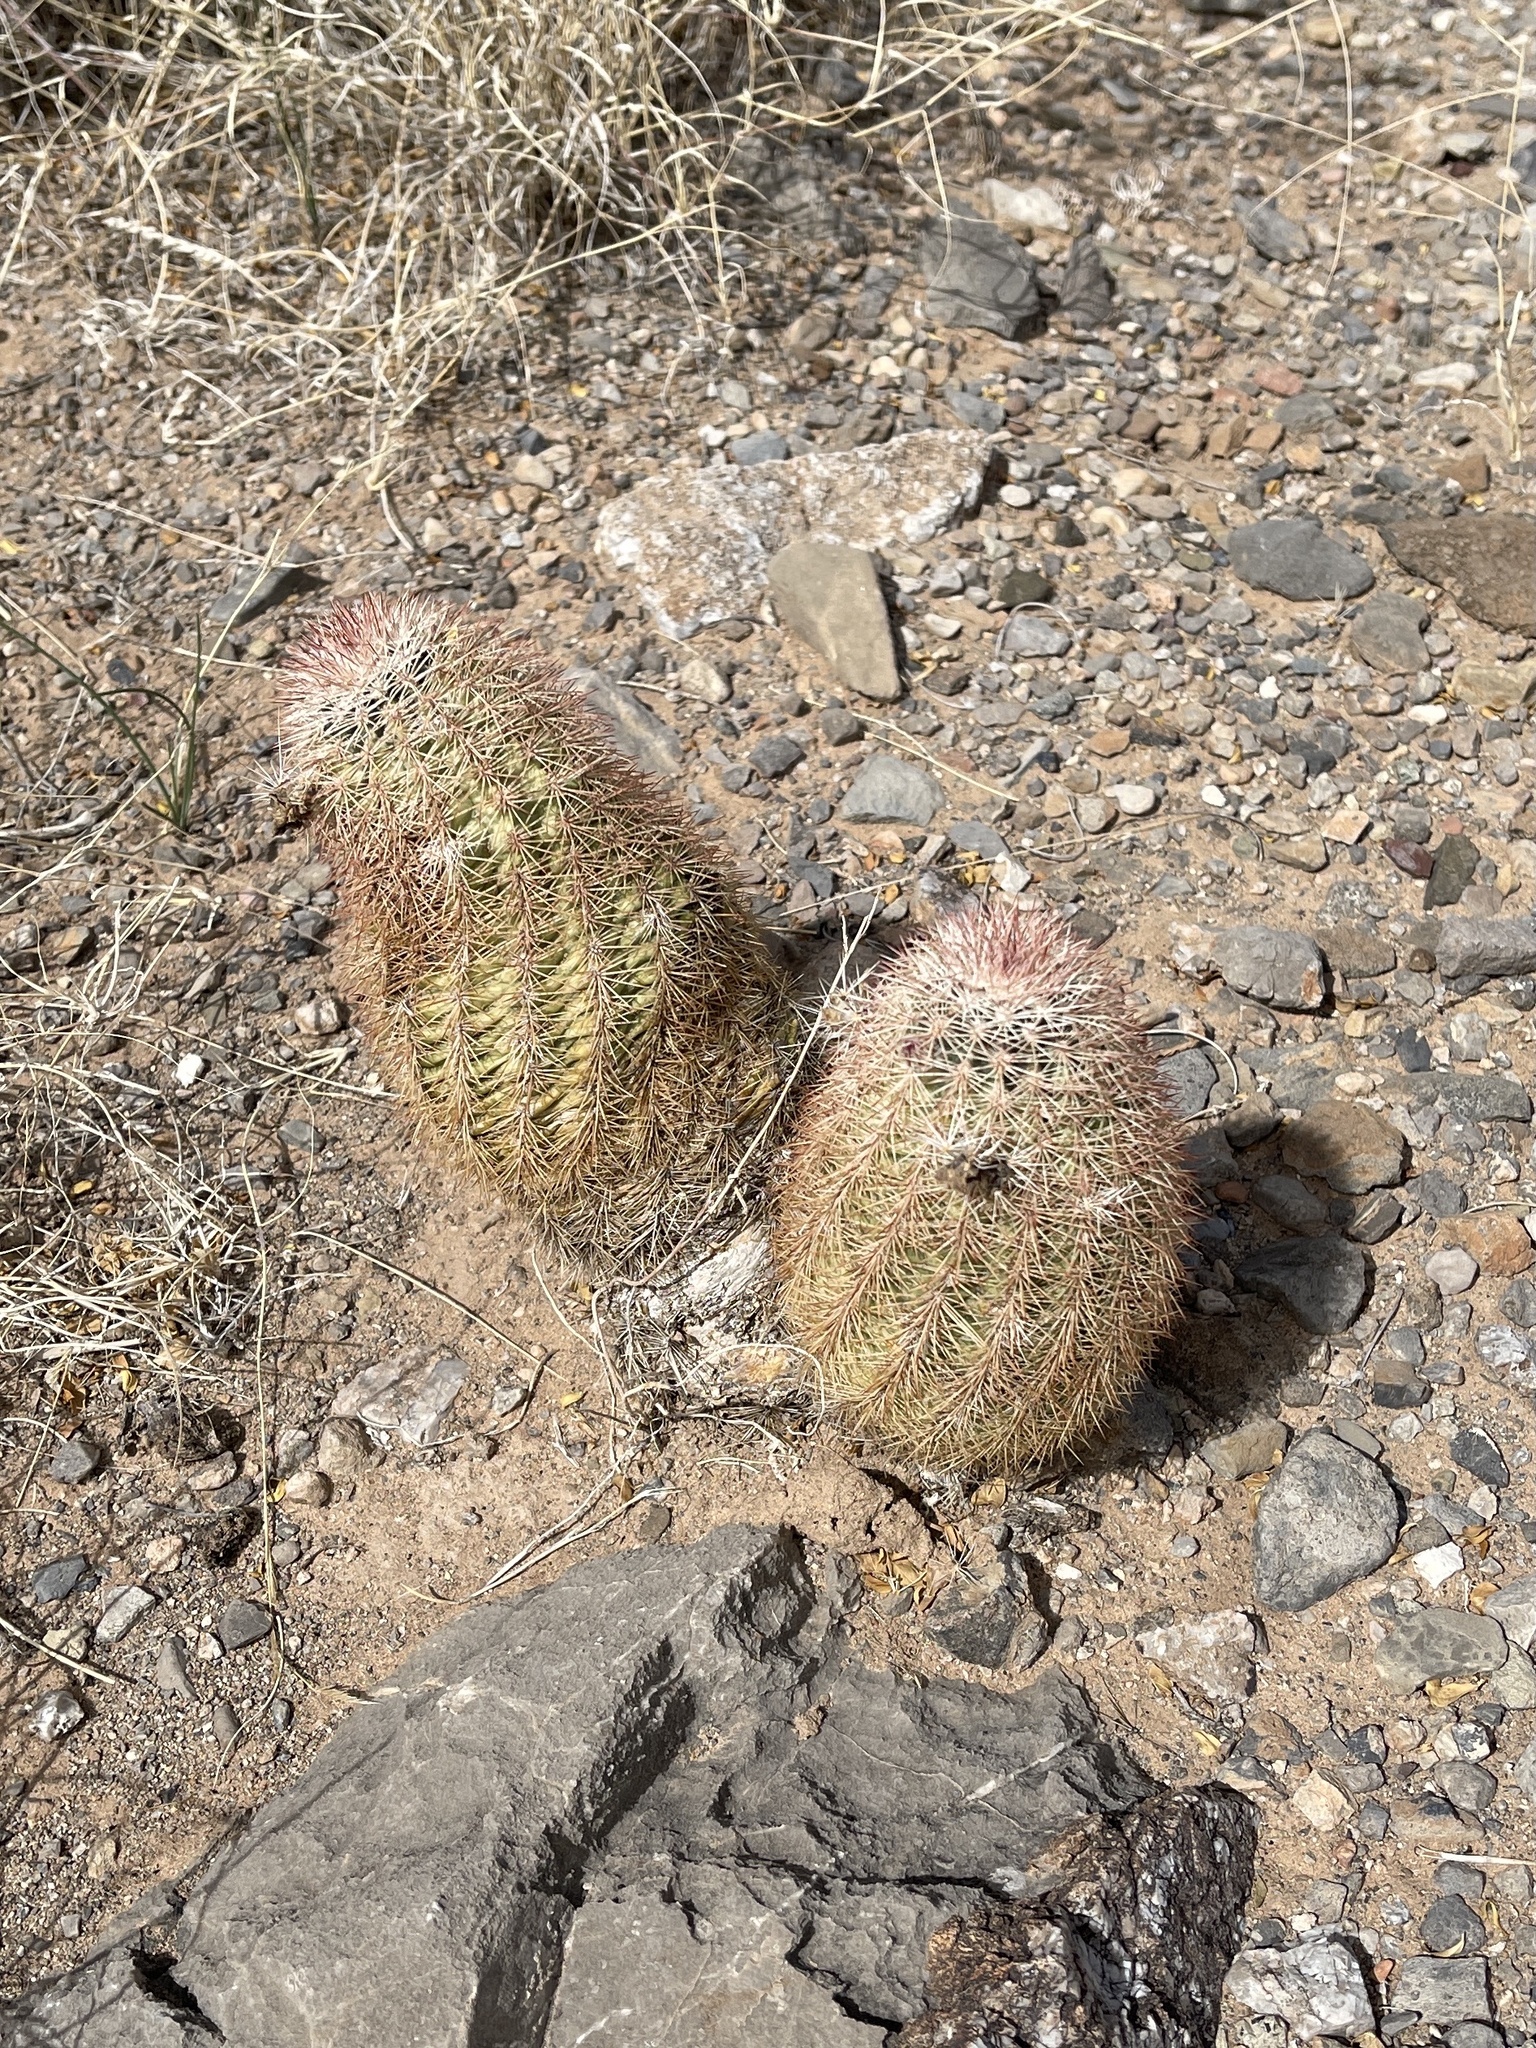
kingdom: Plantae
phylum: Tracheophyta
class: Magnoliopsida
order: Caryophyllales
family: Cactaceae
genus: Echinocereus
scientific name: Echinocereus dasyacanthus
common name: Spiny hedgehog cactus
